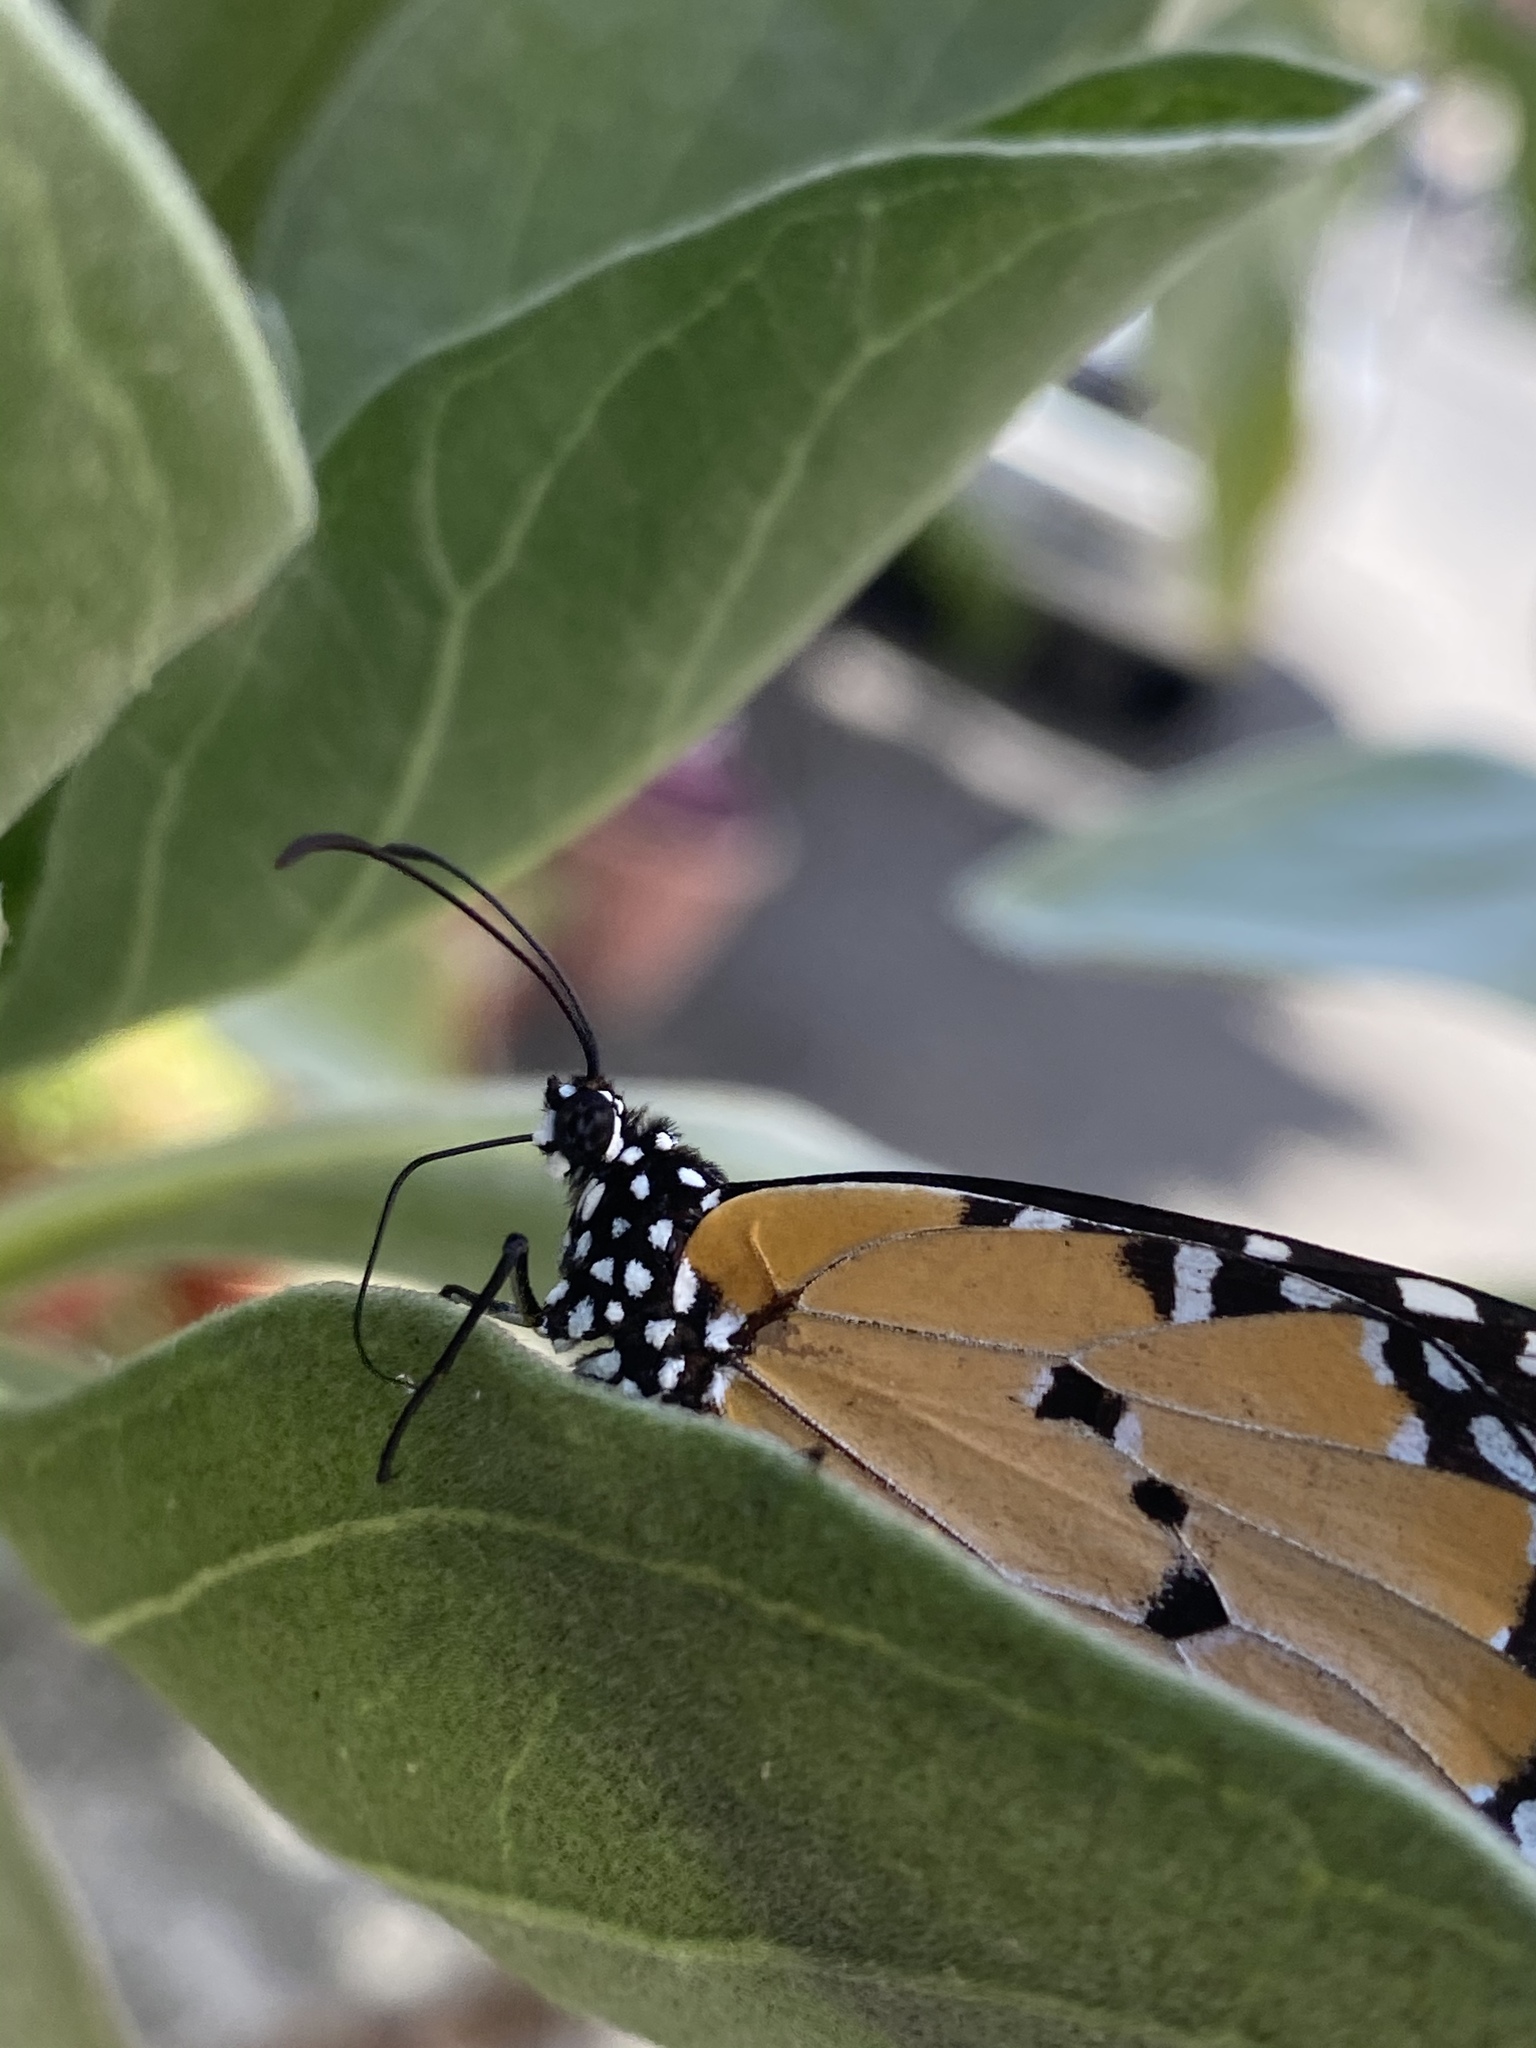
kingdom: Animalia
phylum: Arthropoda
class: Insecta
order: Lepidoptera
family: Nymphalidae
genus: Danaus
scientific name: Danaus chrysippus
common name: Plain tiger
